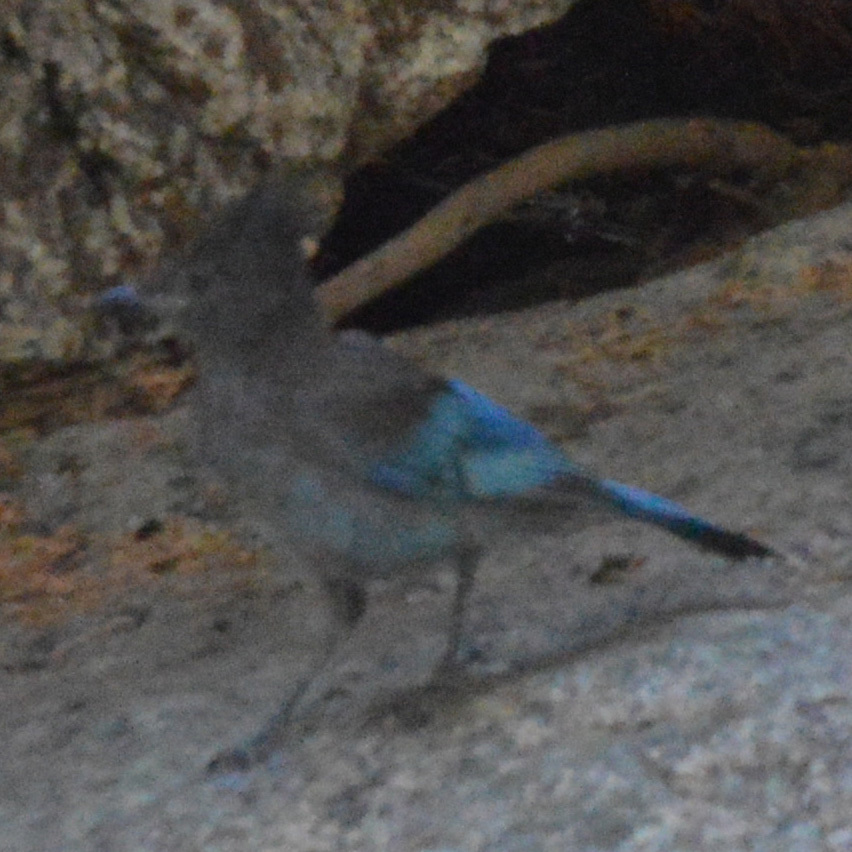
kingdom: Animalia
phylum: Chordata
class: Aves
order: Passeriformes
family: Corvidae
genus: Cyanocitta
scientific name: Cyanocitta stelleri
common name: Steller's jay
